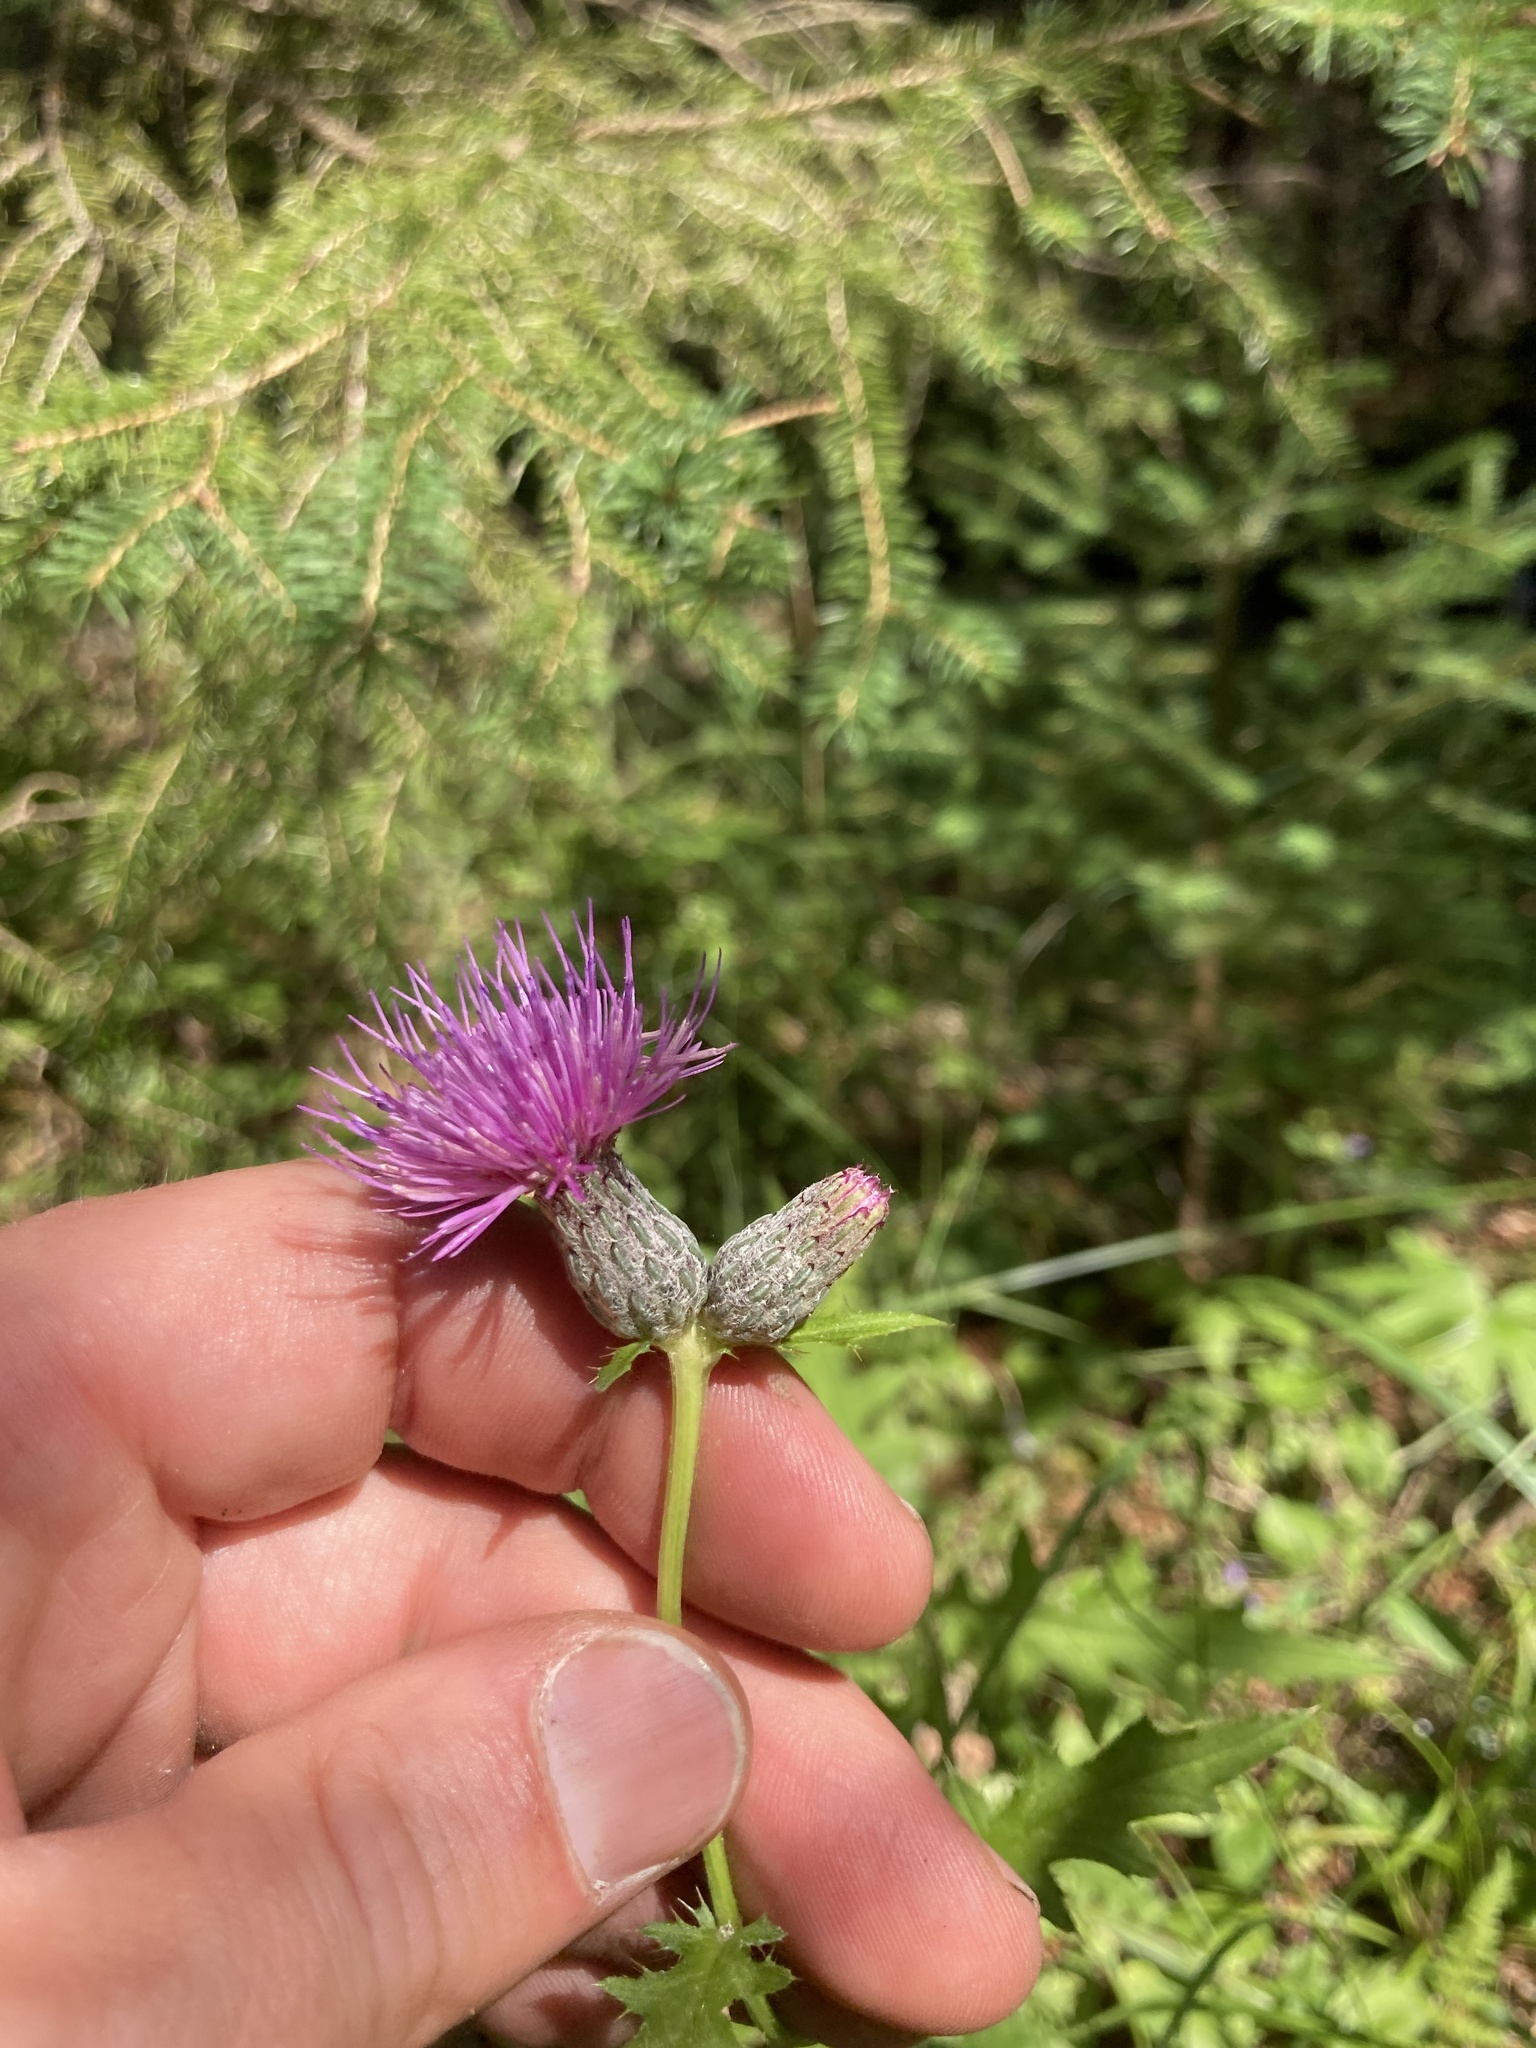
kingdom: Plantae
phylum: Tracheophyta
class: Magnoliopsida
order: Asterales
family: Asteraceae
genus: Cirsium
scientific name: Cirsium muticum
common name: Dunce-nettle
